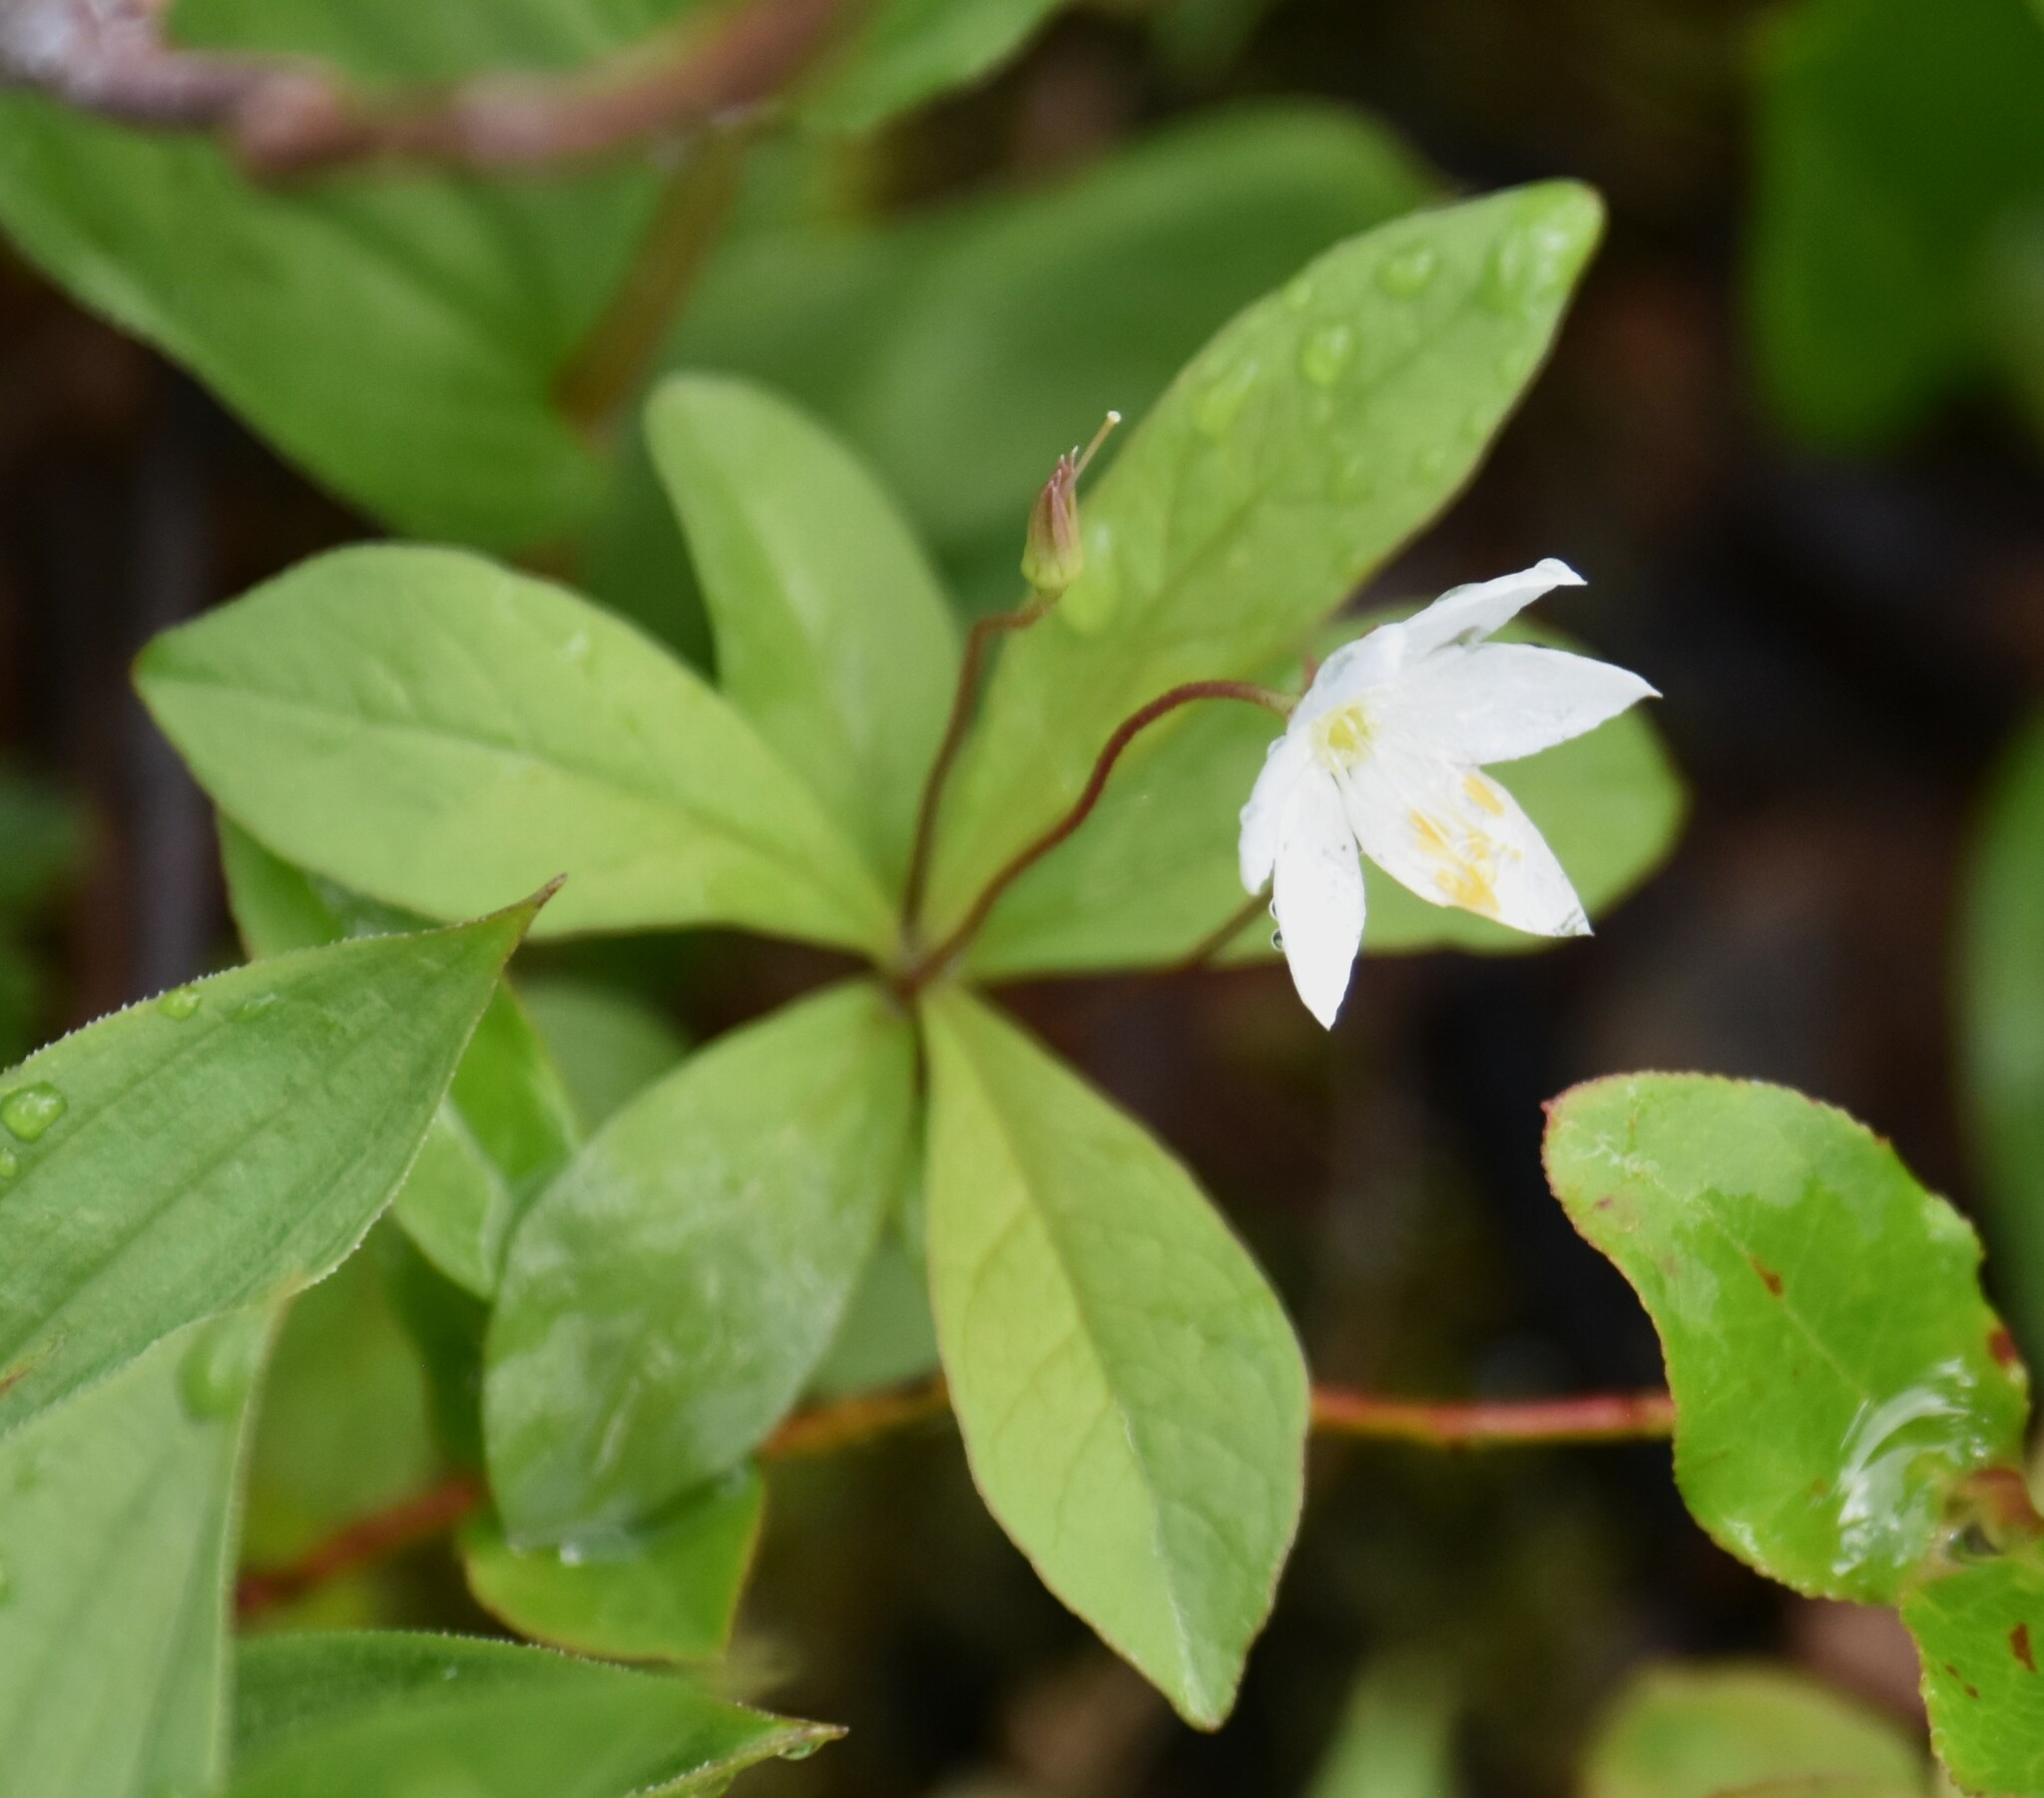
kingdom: Plantae
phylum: Tracheophyta
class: Magnoliopsida
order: Ericales
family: Primulaceae
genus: Lysimachia
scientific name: Lysimachia europaea
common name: Arctic starflower
